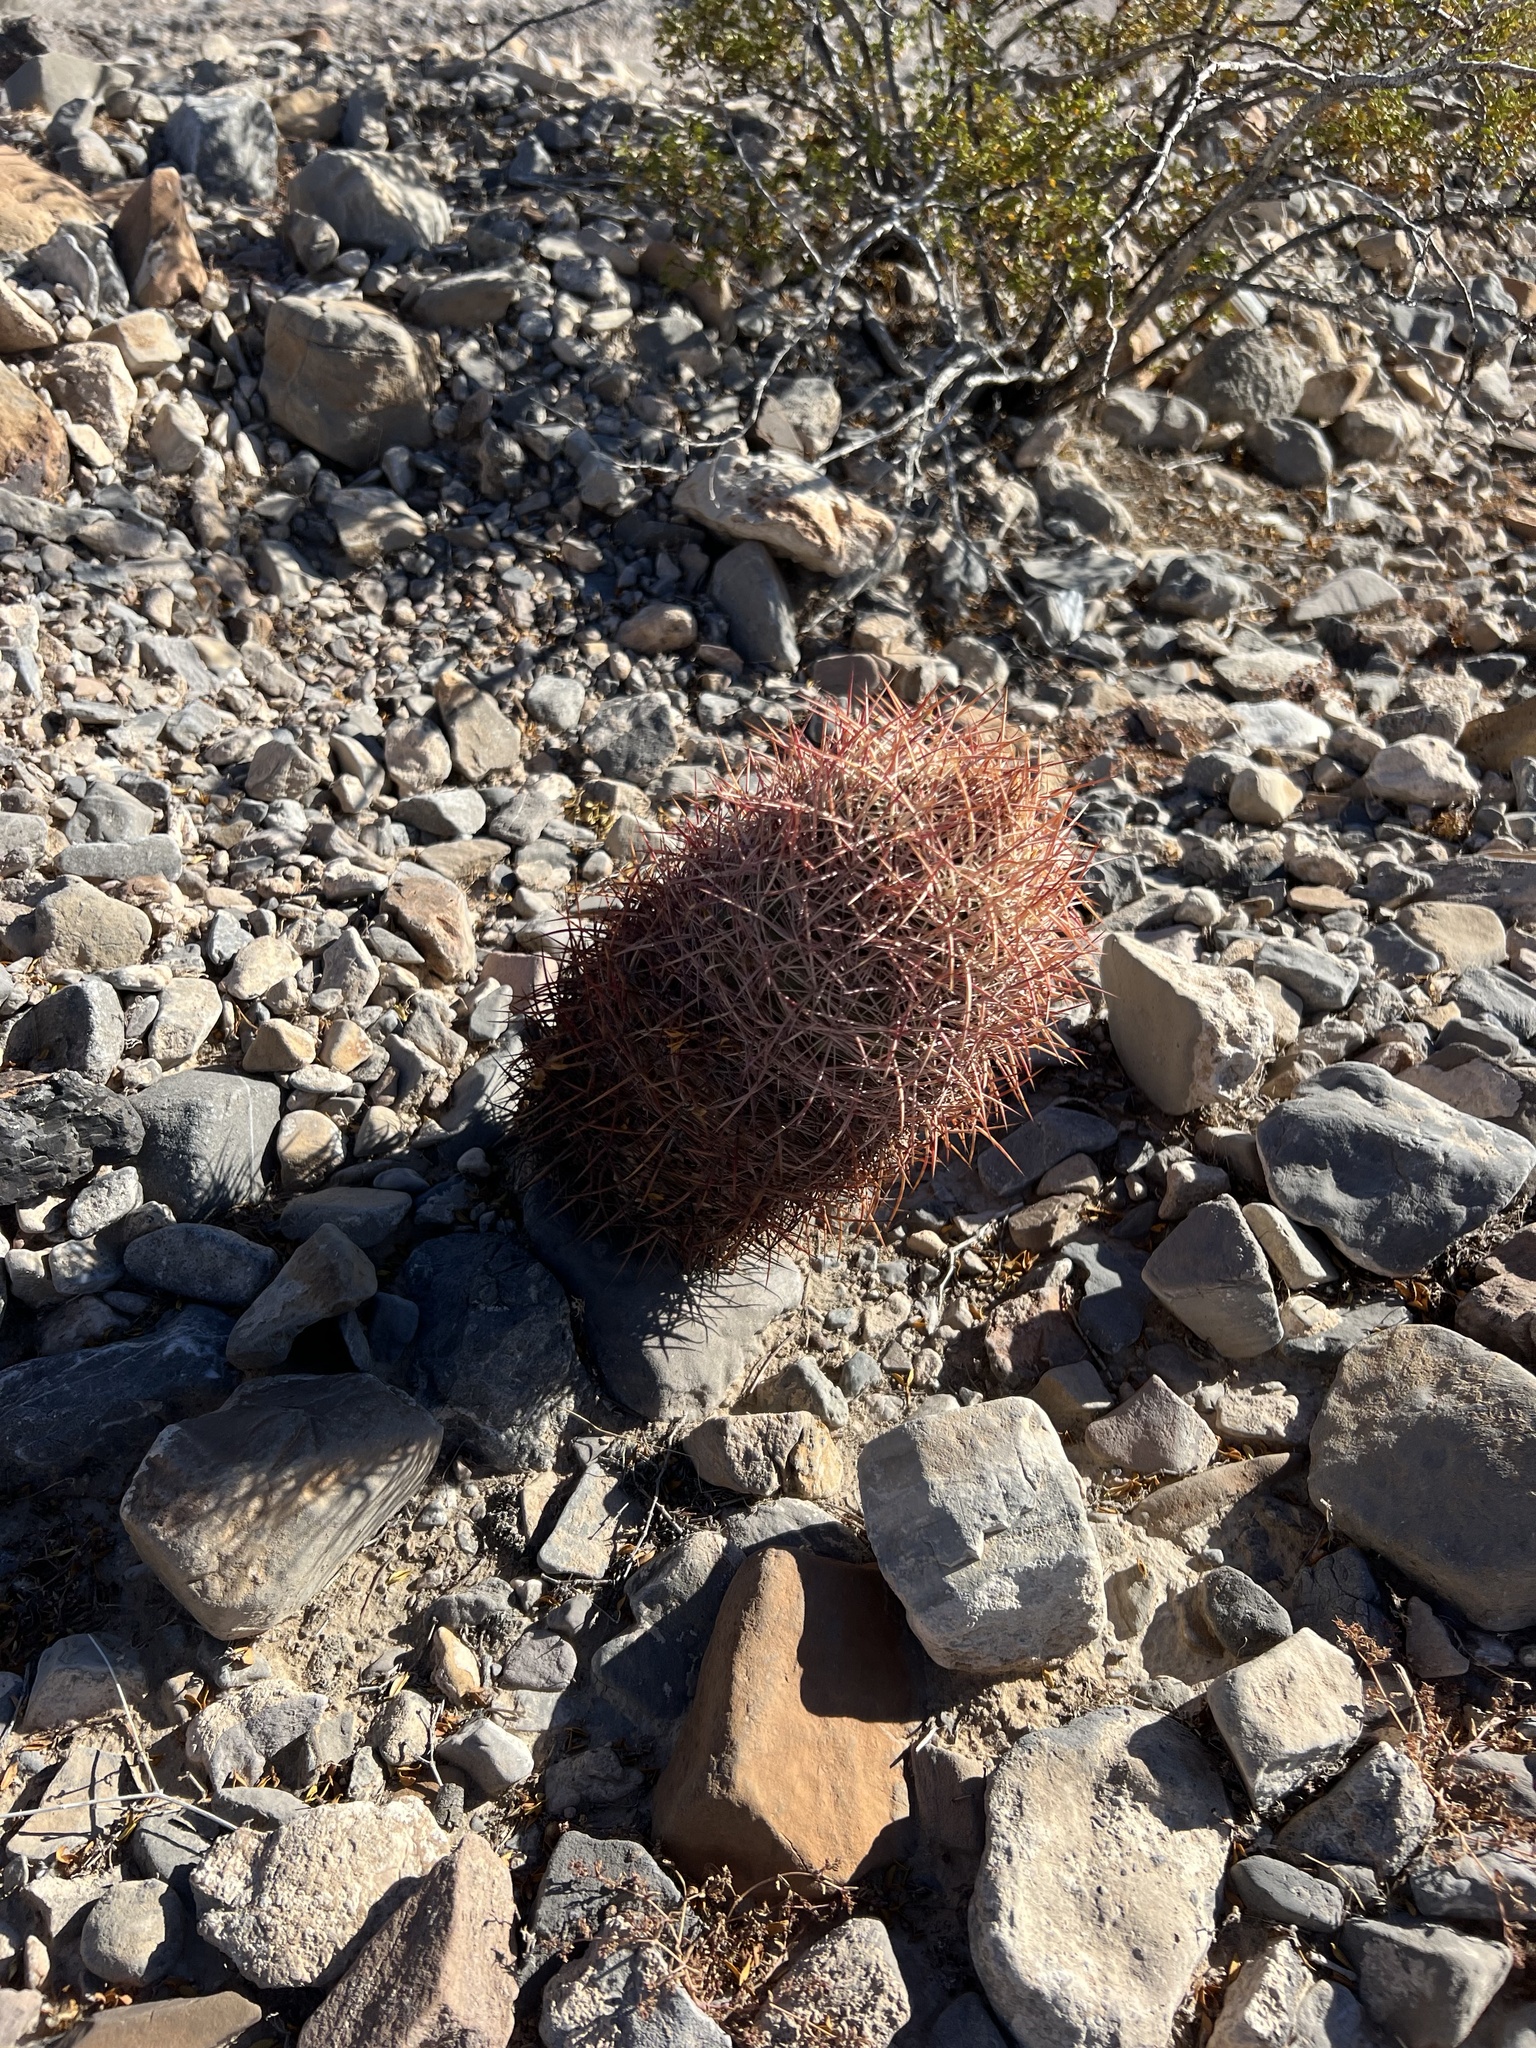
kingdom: Plantae
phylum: Tracheophyta
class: Magnoliopsida
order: Caryophyllales
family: Cactaceae
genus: Sclerocactus
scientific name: Sclerocactus johnsonii
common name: Eight-spine fishhook cactus
